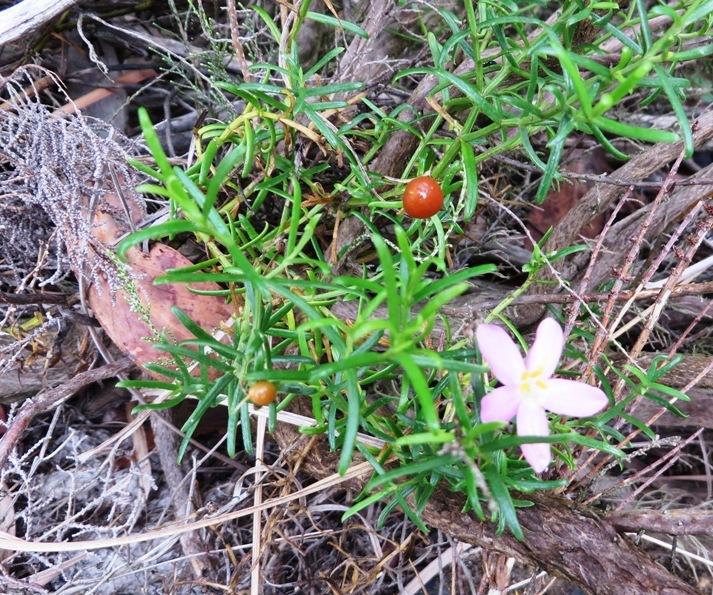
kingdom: Plantae
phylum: Tracheophyta
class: Magnoliopsida
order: Gentianales
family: Gentianaceae
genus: Chironia
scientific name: Chironia baccifera
